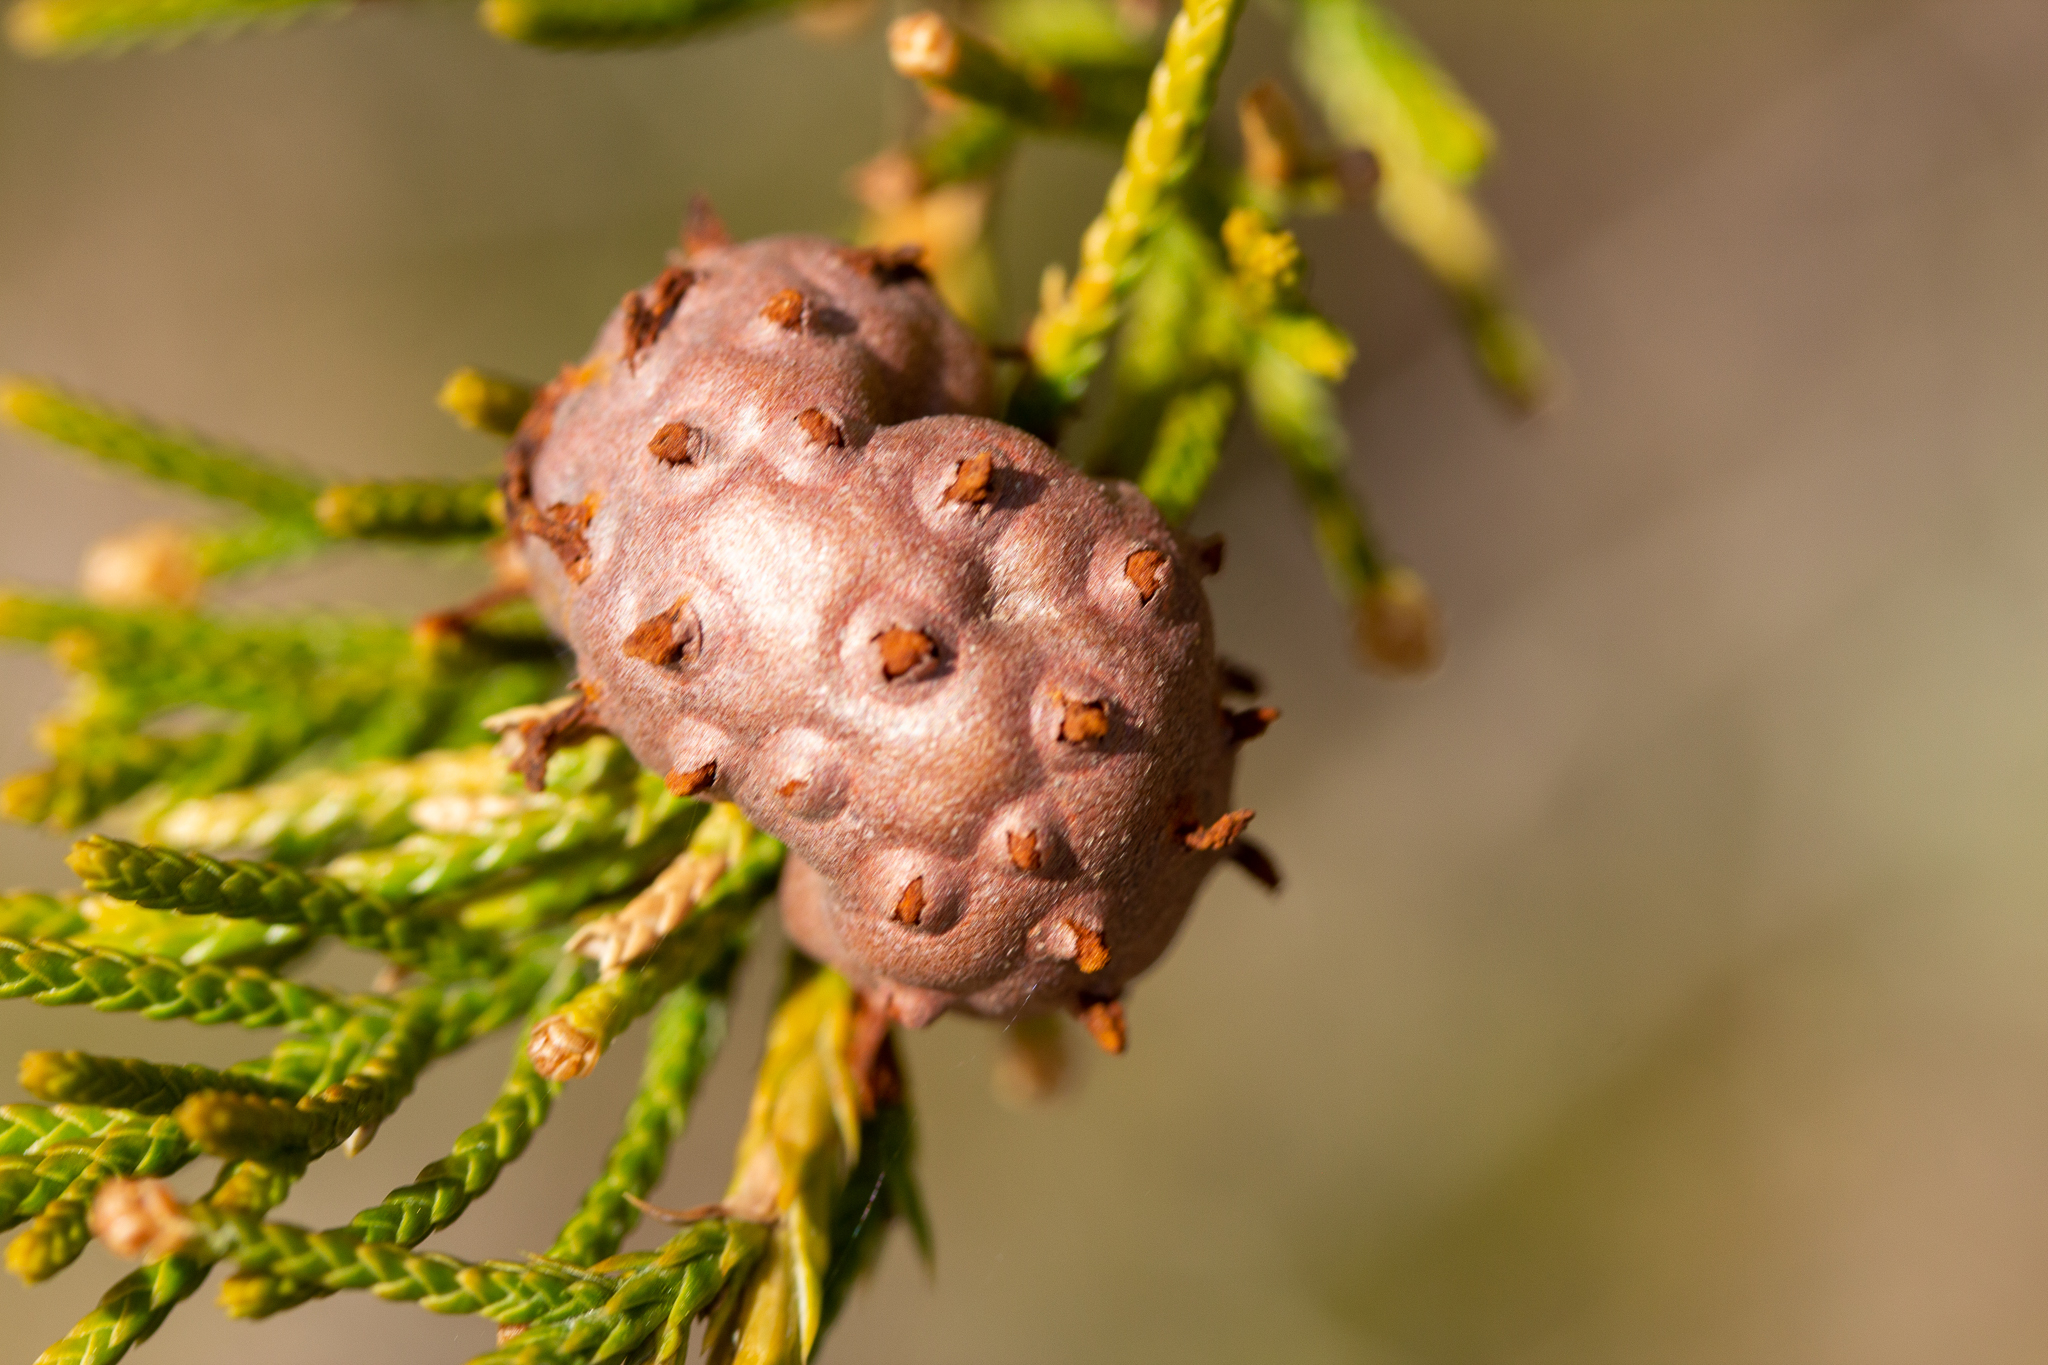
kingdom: Fungi
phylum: Basidiomycota
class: Pucciniomycetes
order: Pucciniales
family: Gymnosporangiaceae
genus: Gymnosporangium
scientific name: Gymnosporangium juniperi-virginianae
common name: Juniper-apple rust
